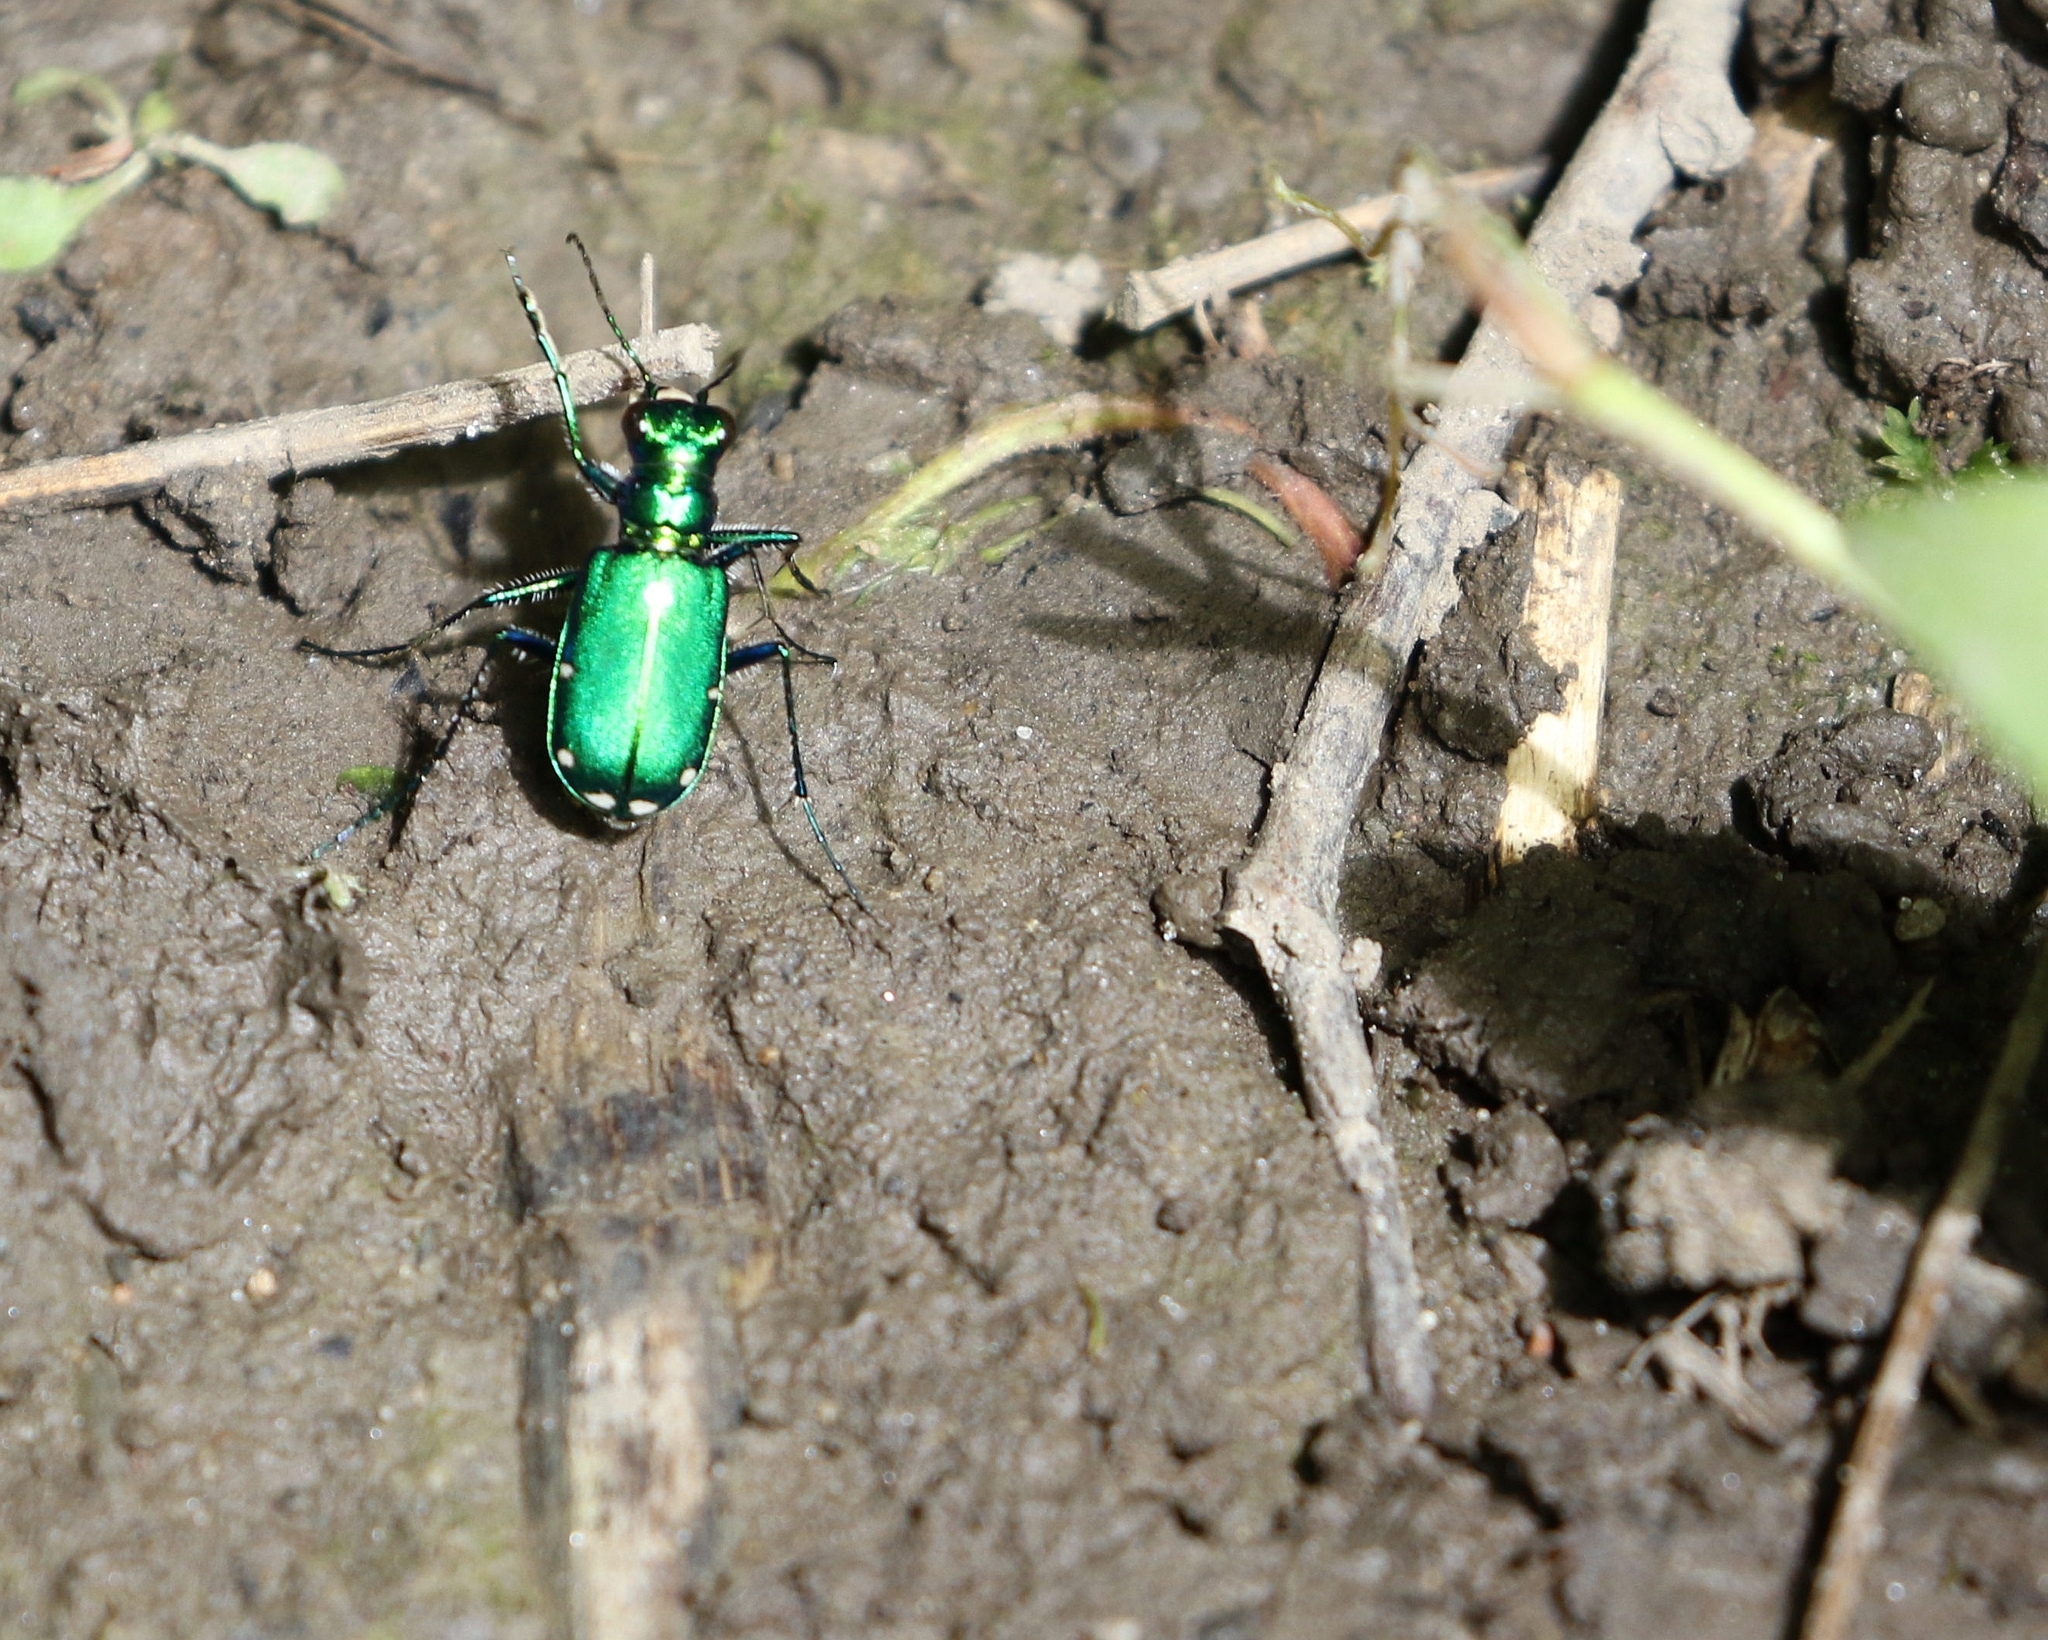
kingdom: Animalia
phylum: Arthropoda
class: Insecta
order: Coleoptera
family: Carabidae
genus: Cicindela
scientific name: Cicindela sexguttata
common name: Six-spotted tiger beetle
